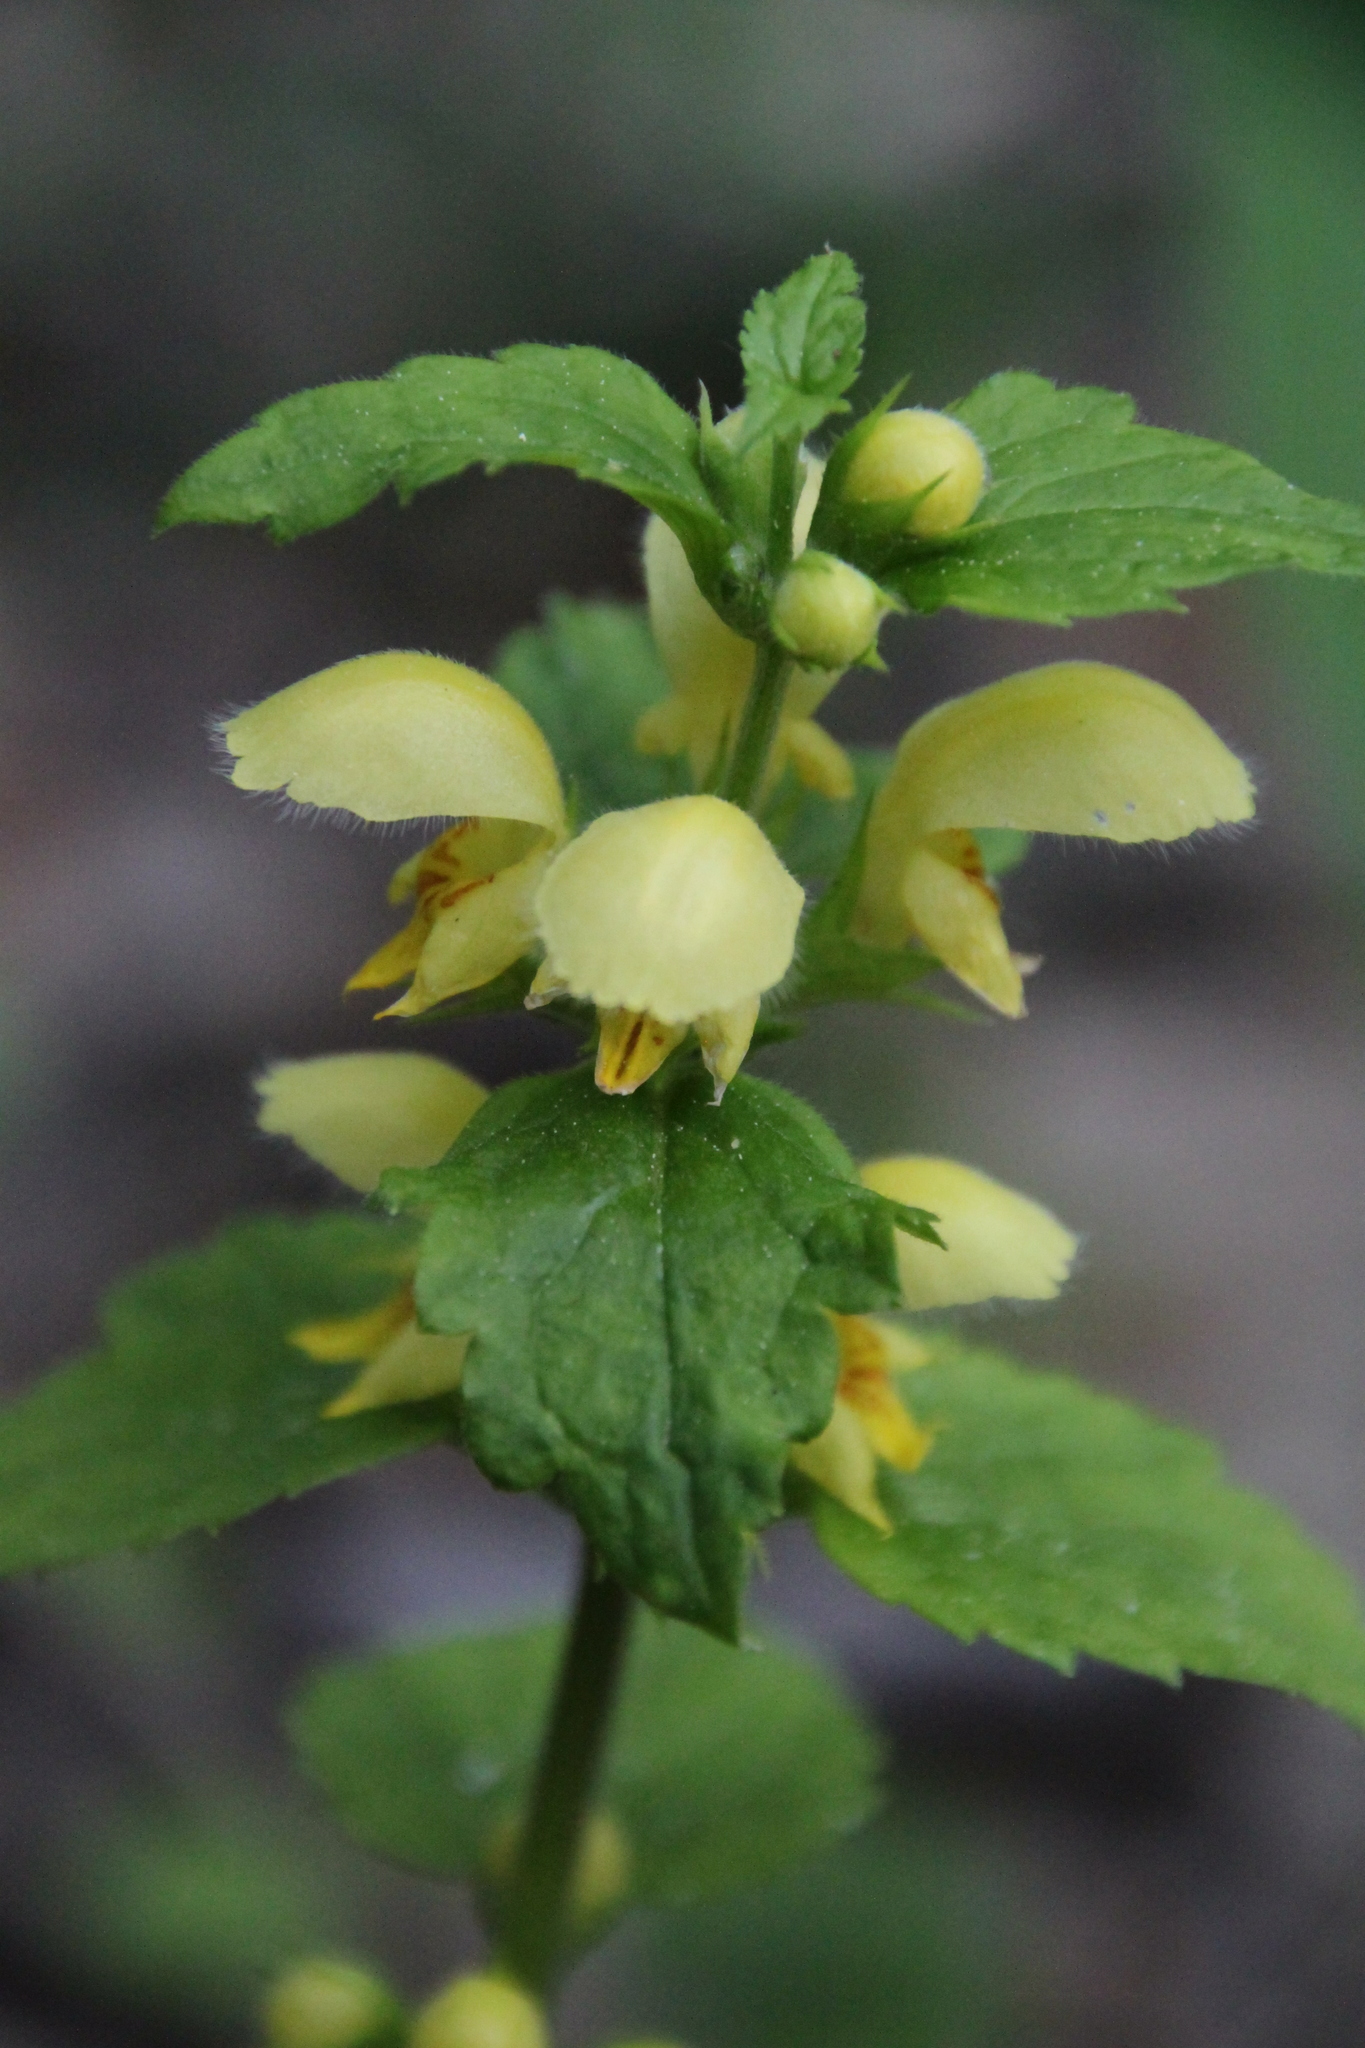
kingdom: Plantae
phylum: Tracheophyta
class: Magnoliopsida
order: Lamiales
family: Lamiaceae
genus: Lamium
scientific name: Lamium galeobdolon
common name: Yellow archangel
